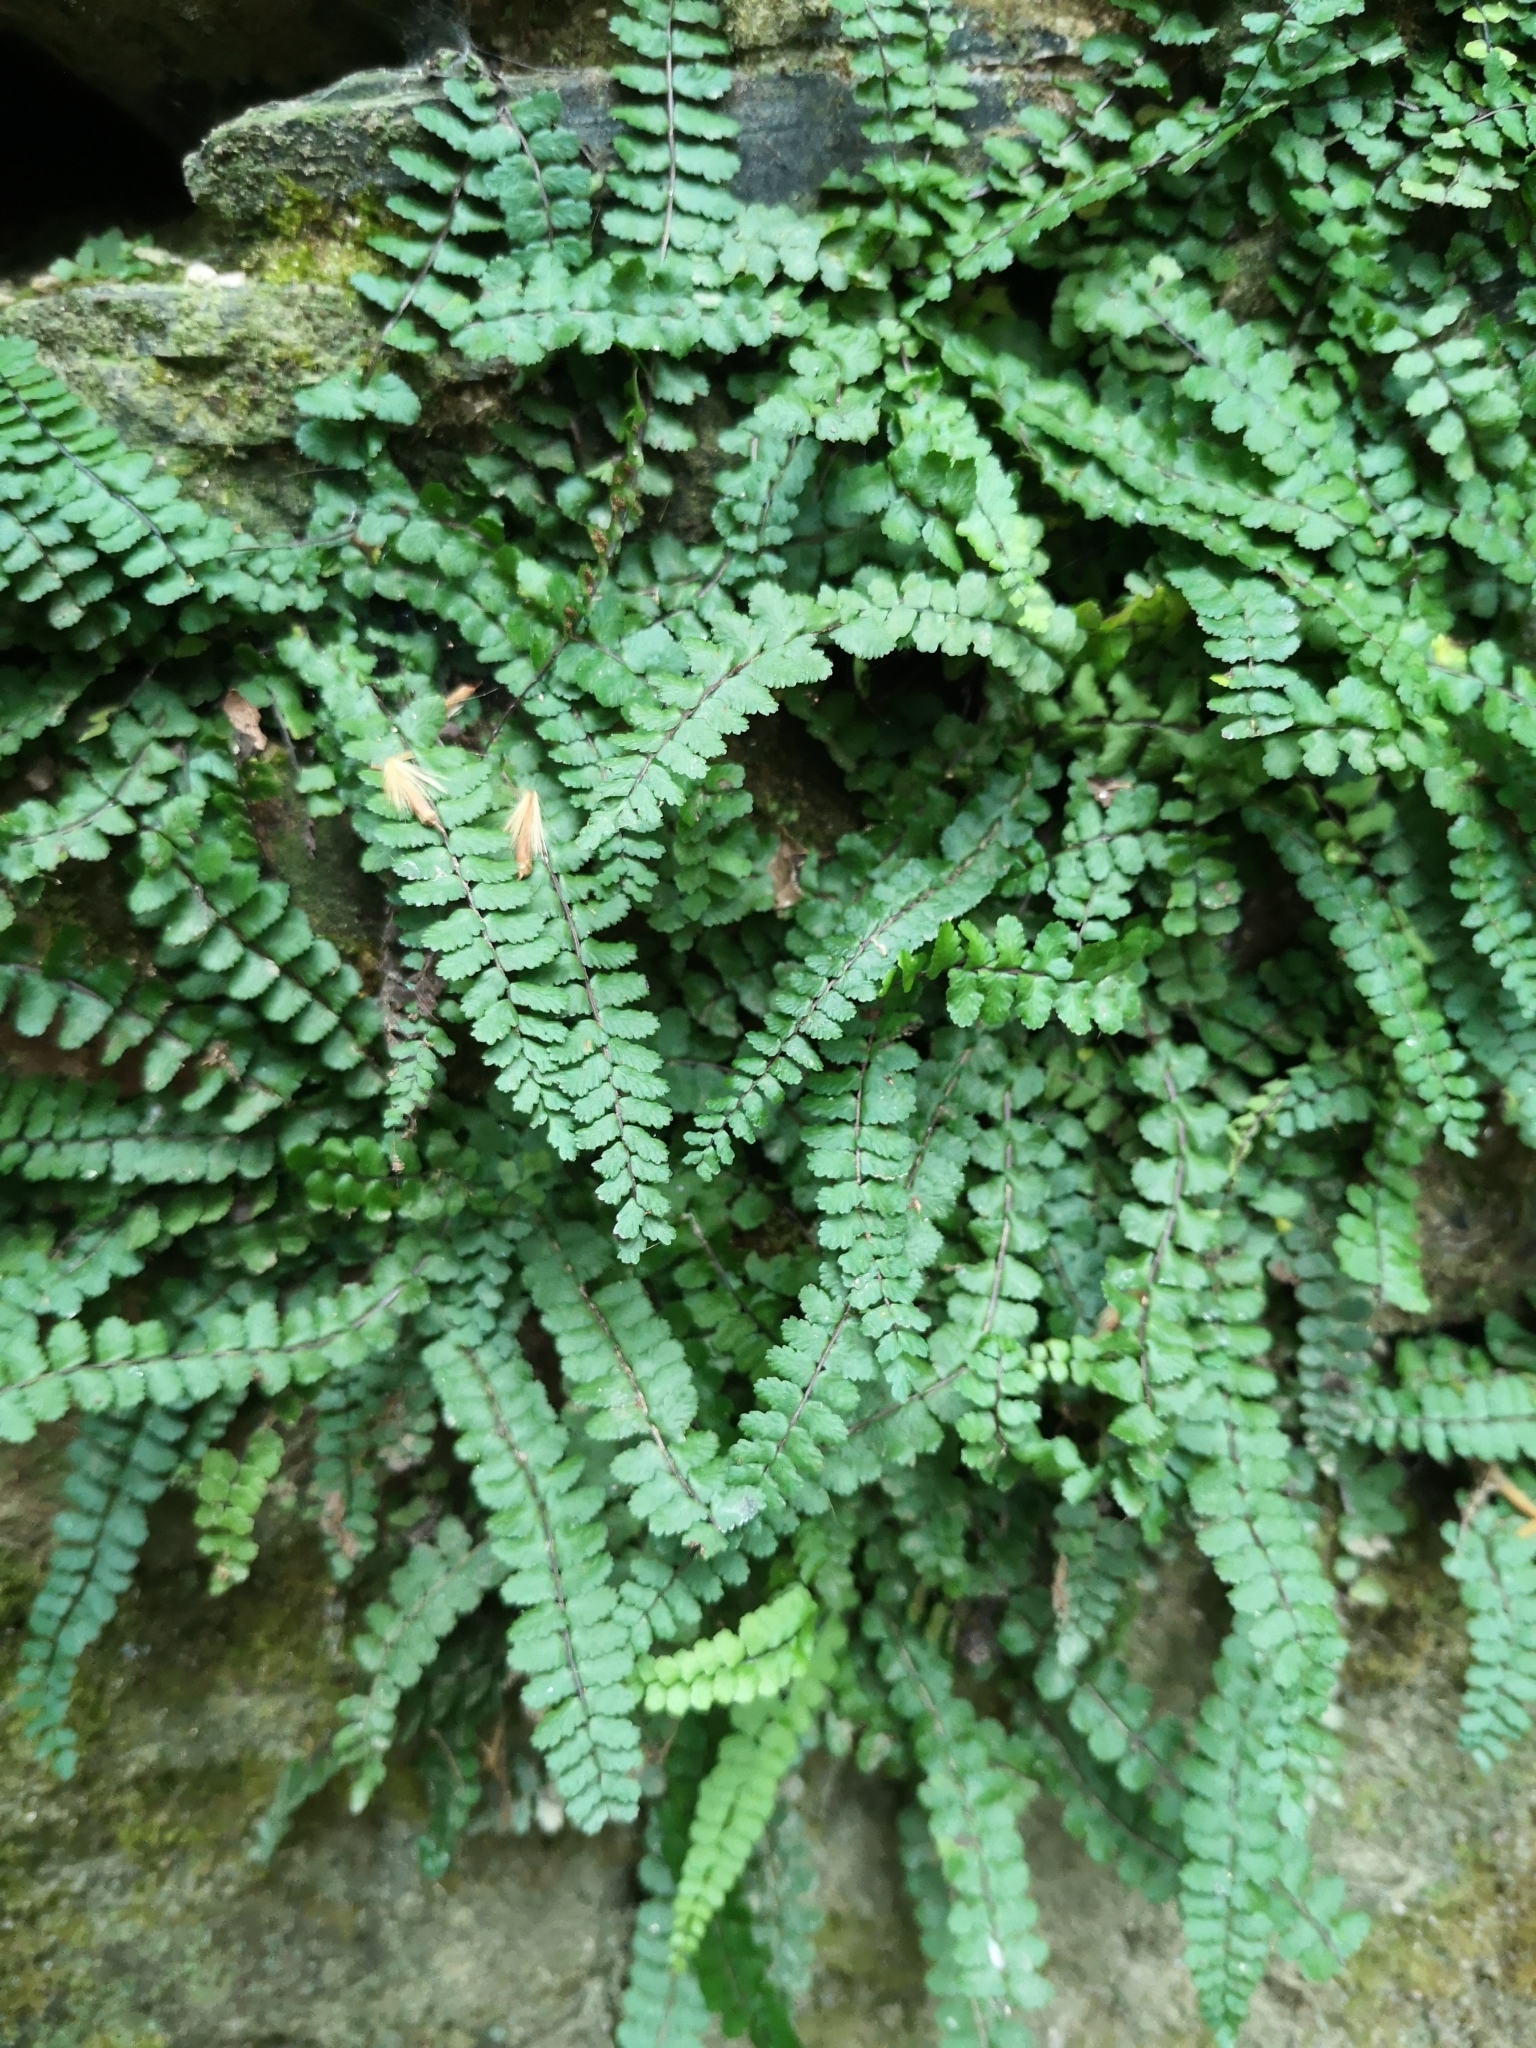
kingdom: Plantae
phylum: Tracheophyta
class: Polypodiopsida
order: Polypodiales
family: Aspleniaceae
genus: Asplenium
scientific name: Asplenium trichomanes
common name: Maidenhair spleenwort
